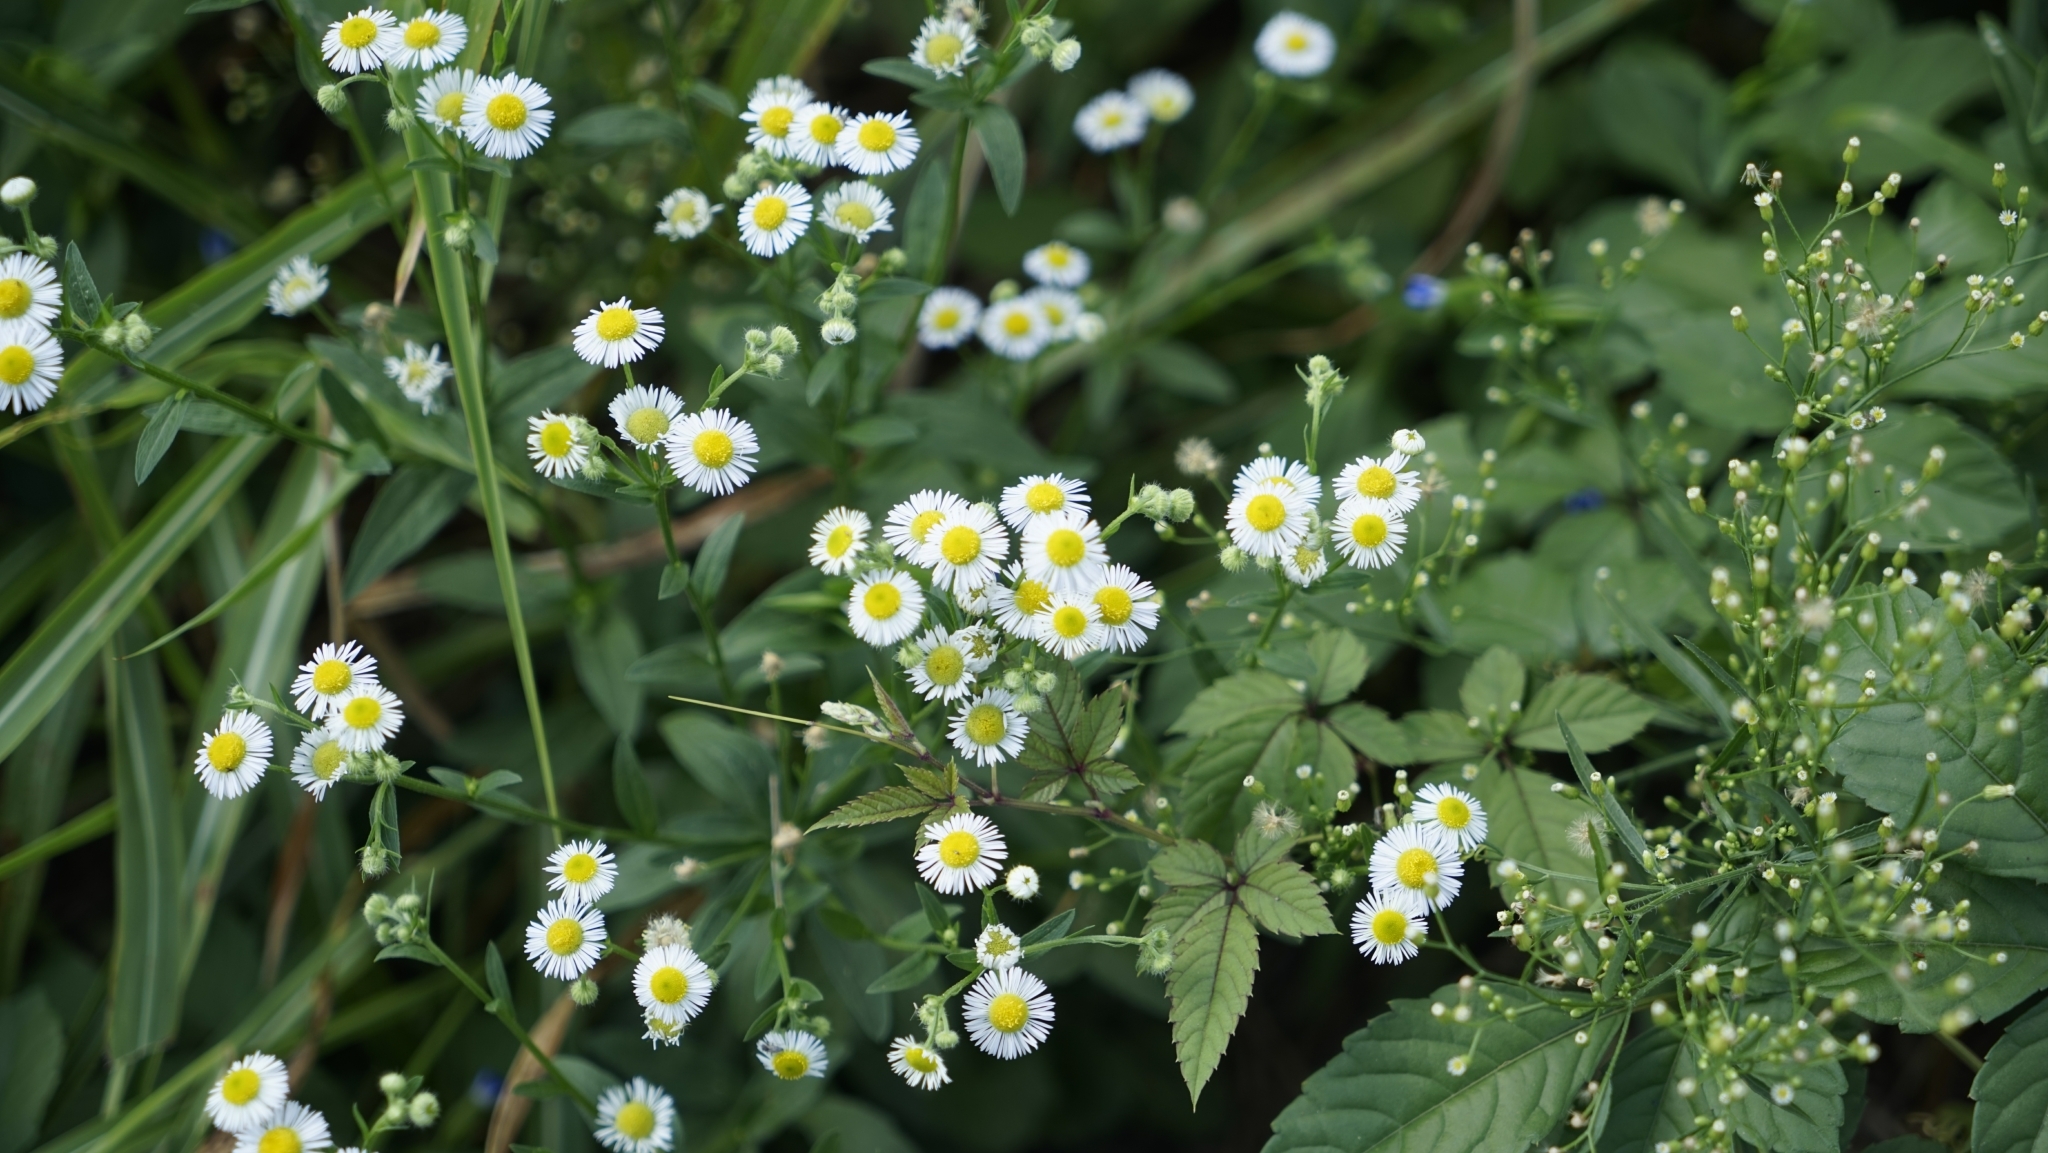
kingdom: Plantae
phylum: Tracheophyta
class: Magnoliopsida
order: Asterales
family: Asteraceae
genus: Erigeron
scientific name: Erigeron annuus
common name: Tall fleabane
